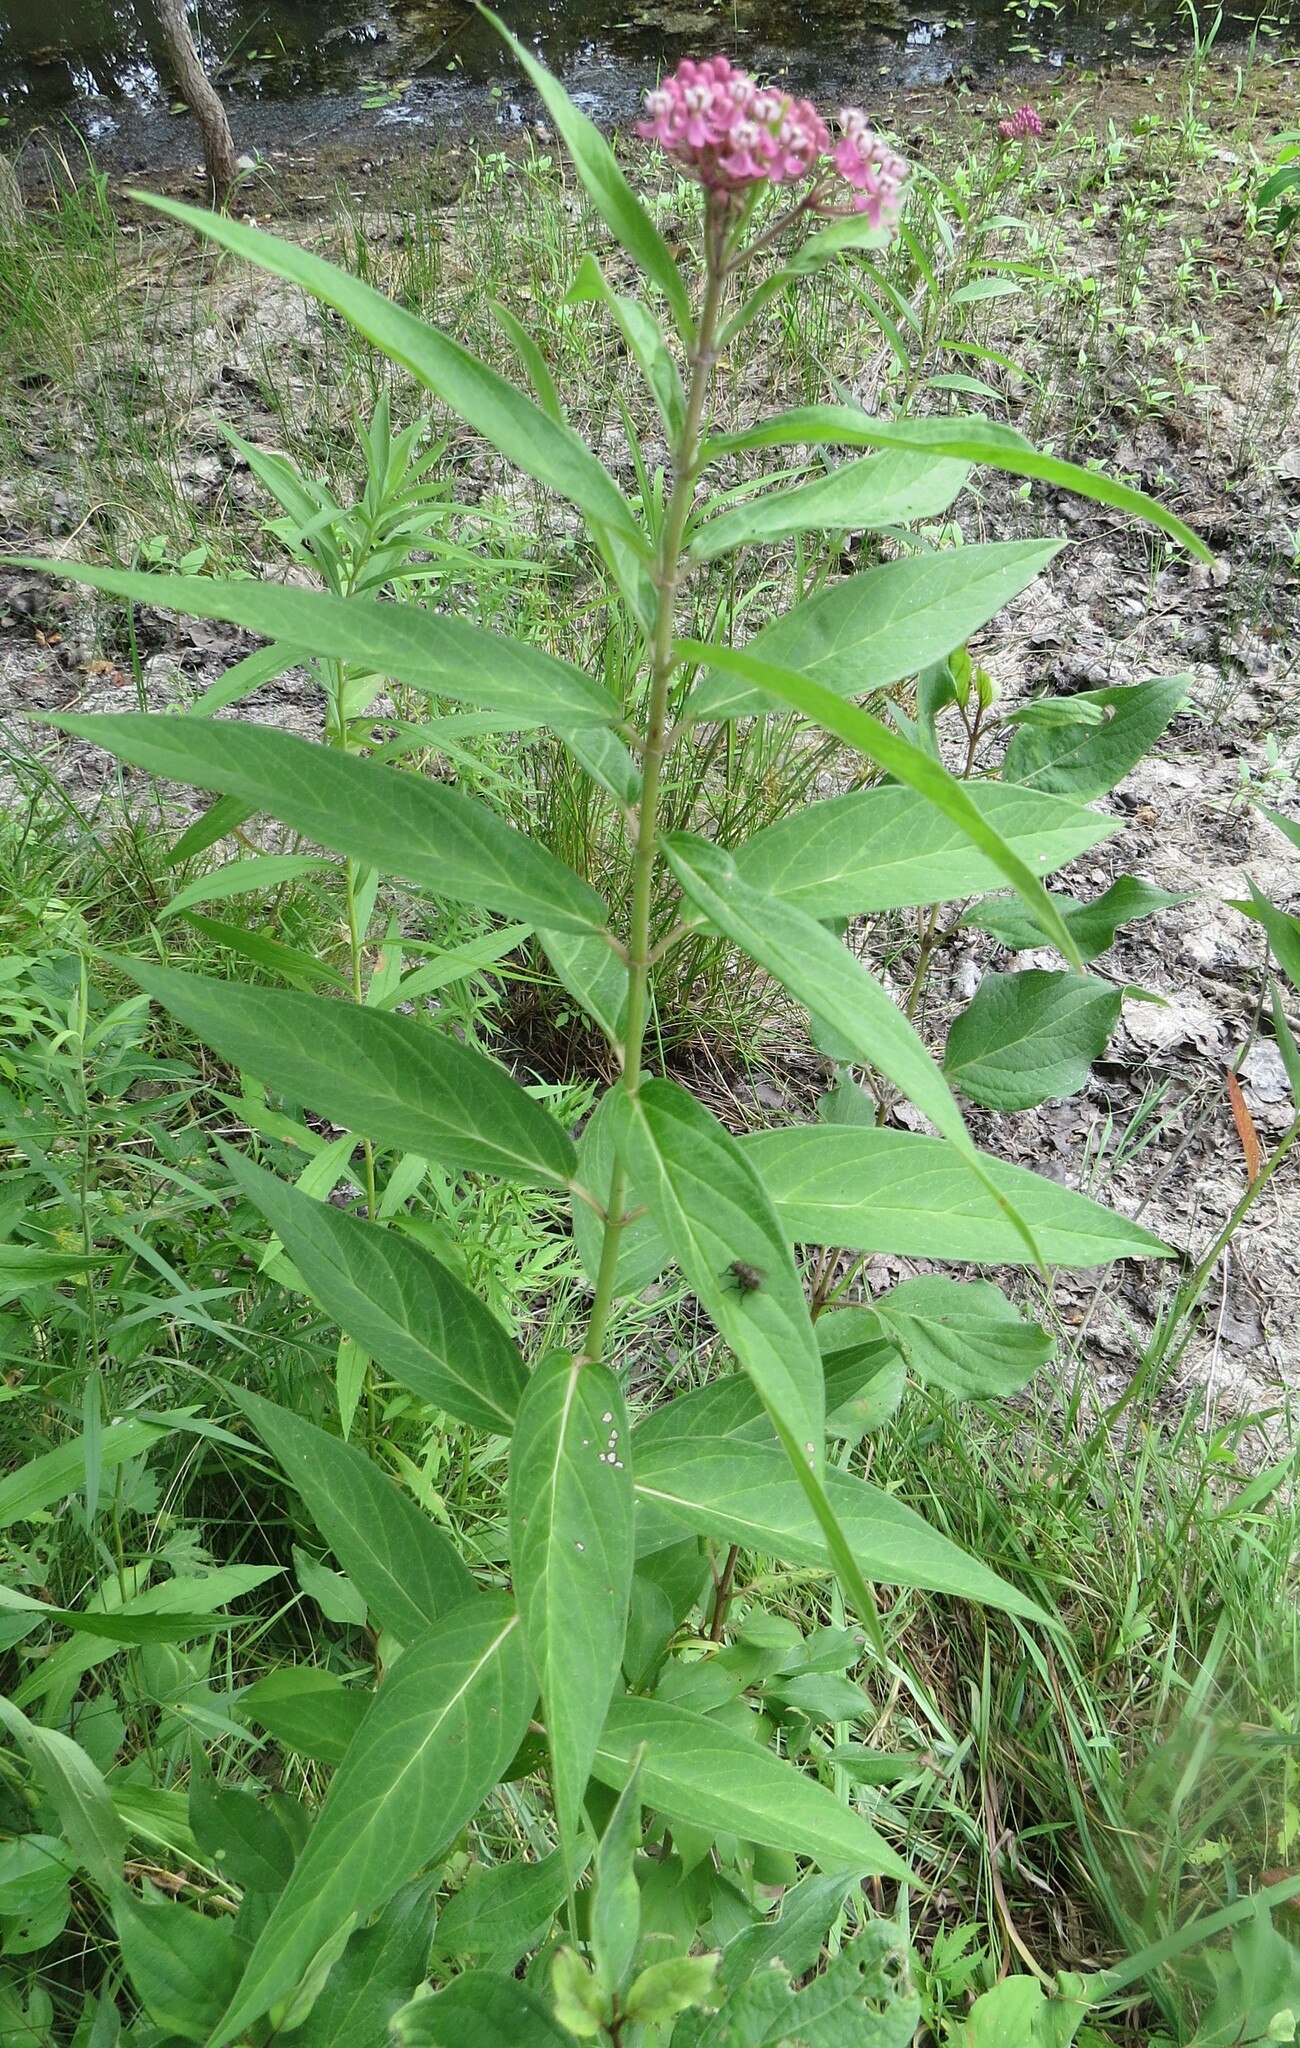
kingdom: Plantae
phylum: Tracheophyta
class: Magnoliopsida
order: Gentianales
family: Apocynaceae
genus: Asclepias
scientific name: Asclepias incarnata
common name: Swamp milkweed
